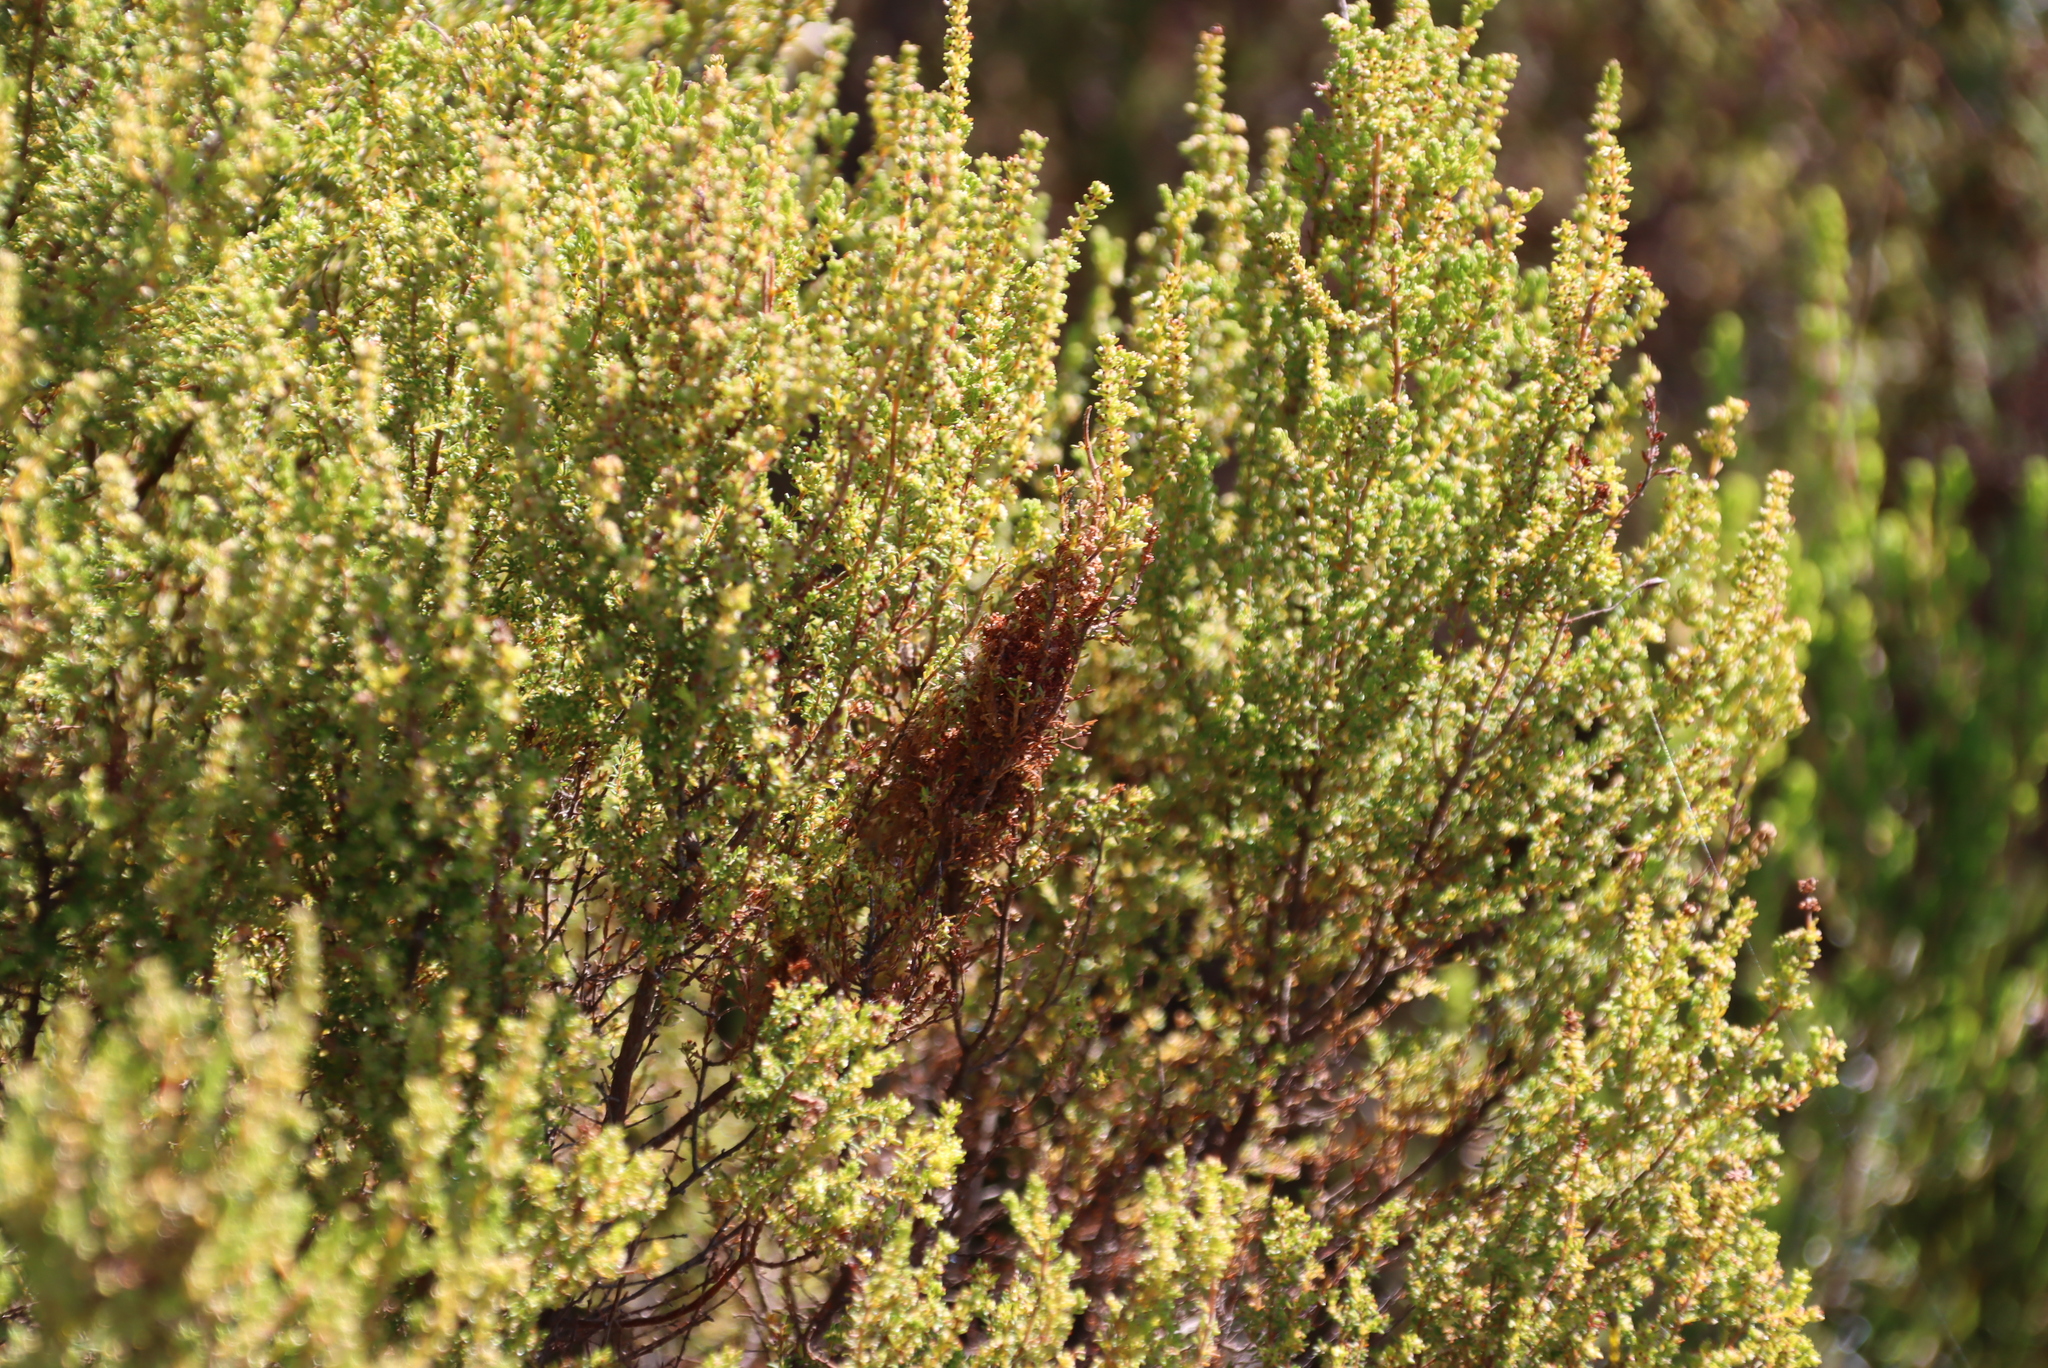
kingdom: Plantae
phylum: Tracheophyta
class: Magnoliopsida
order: Ericales
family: Ericaceae
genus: Erica
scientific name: Erica muscosa
